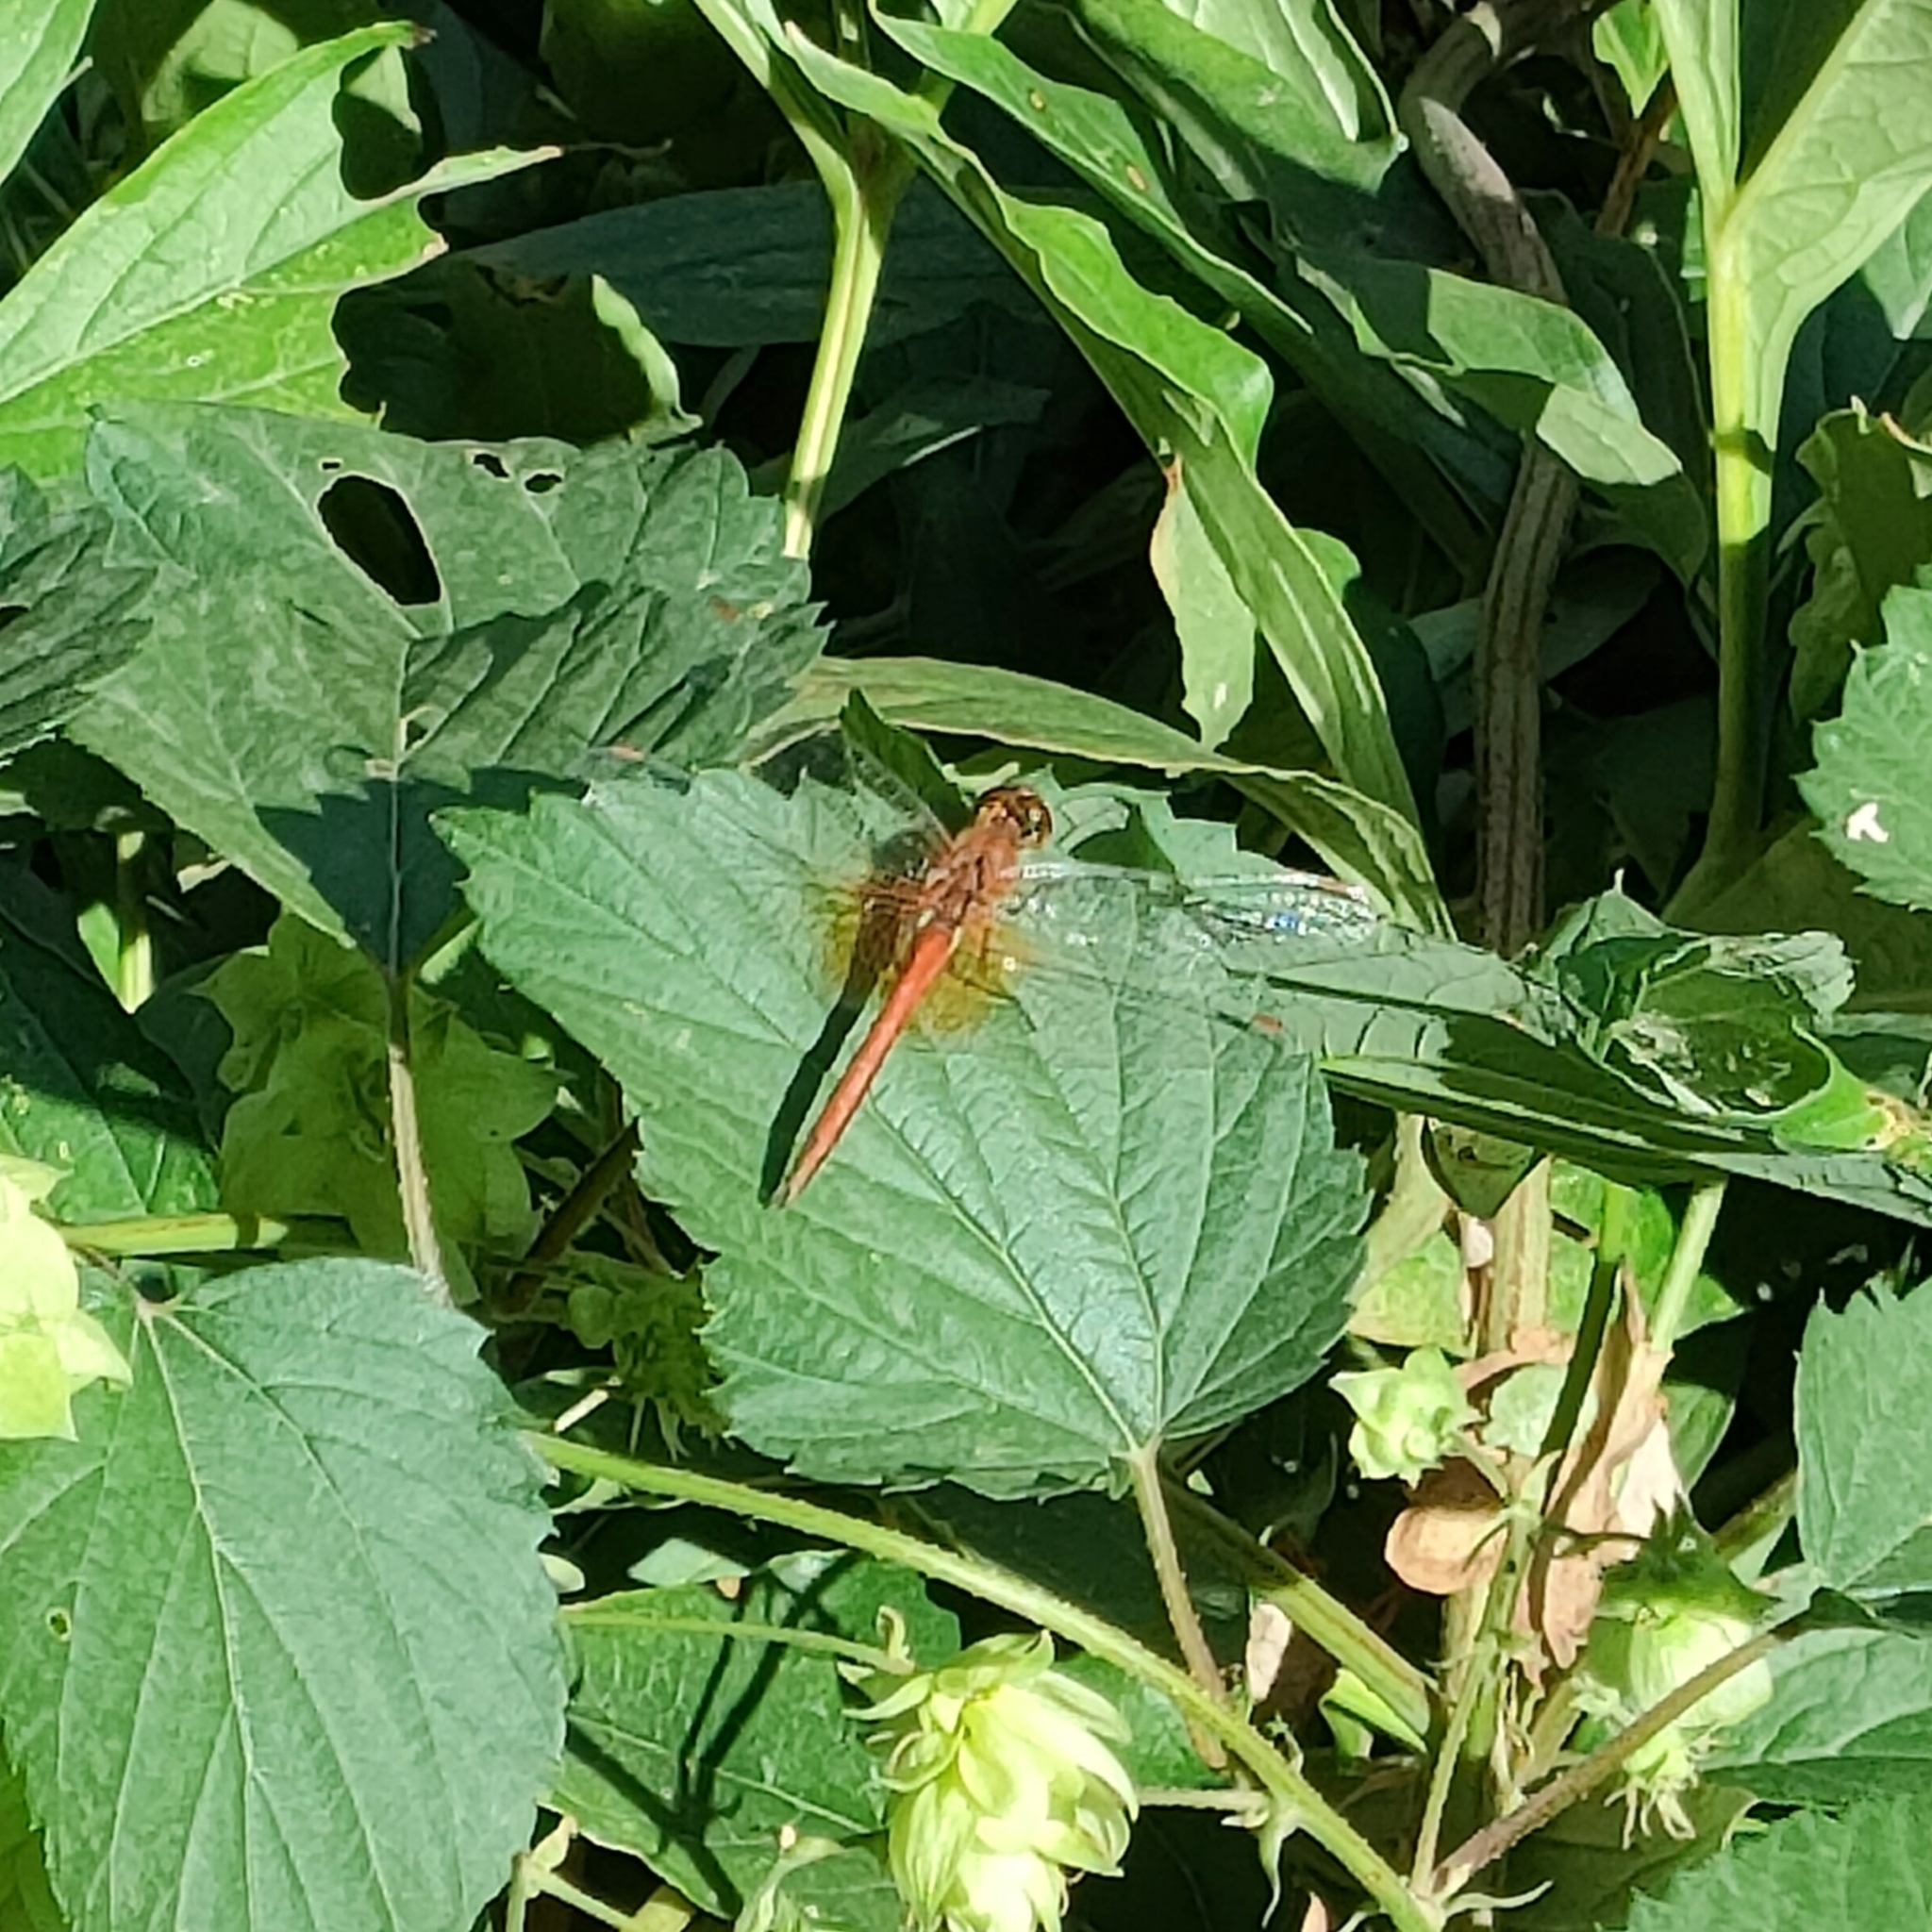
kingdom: Animalia
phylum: Arthropoda
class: Insecta
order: Odonata
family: Libellulidae
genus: Sympetrum
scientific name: Sympetrum flaveolum
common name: Yellow-winged darter
